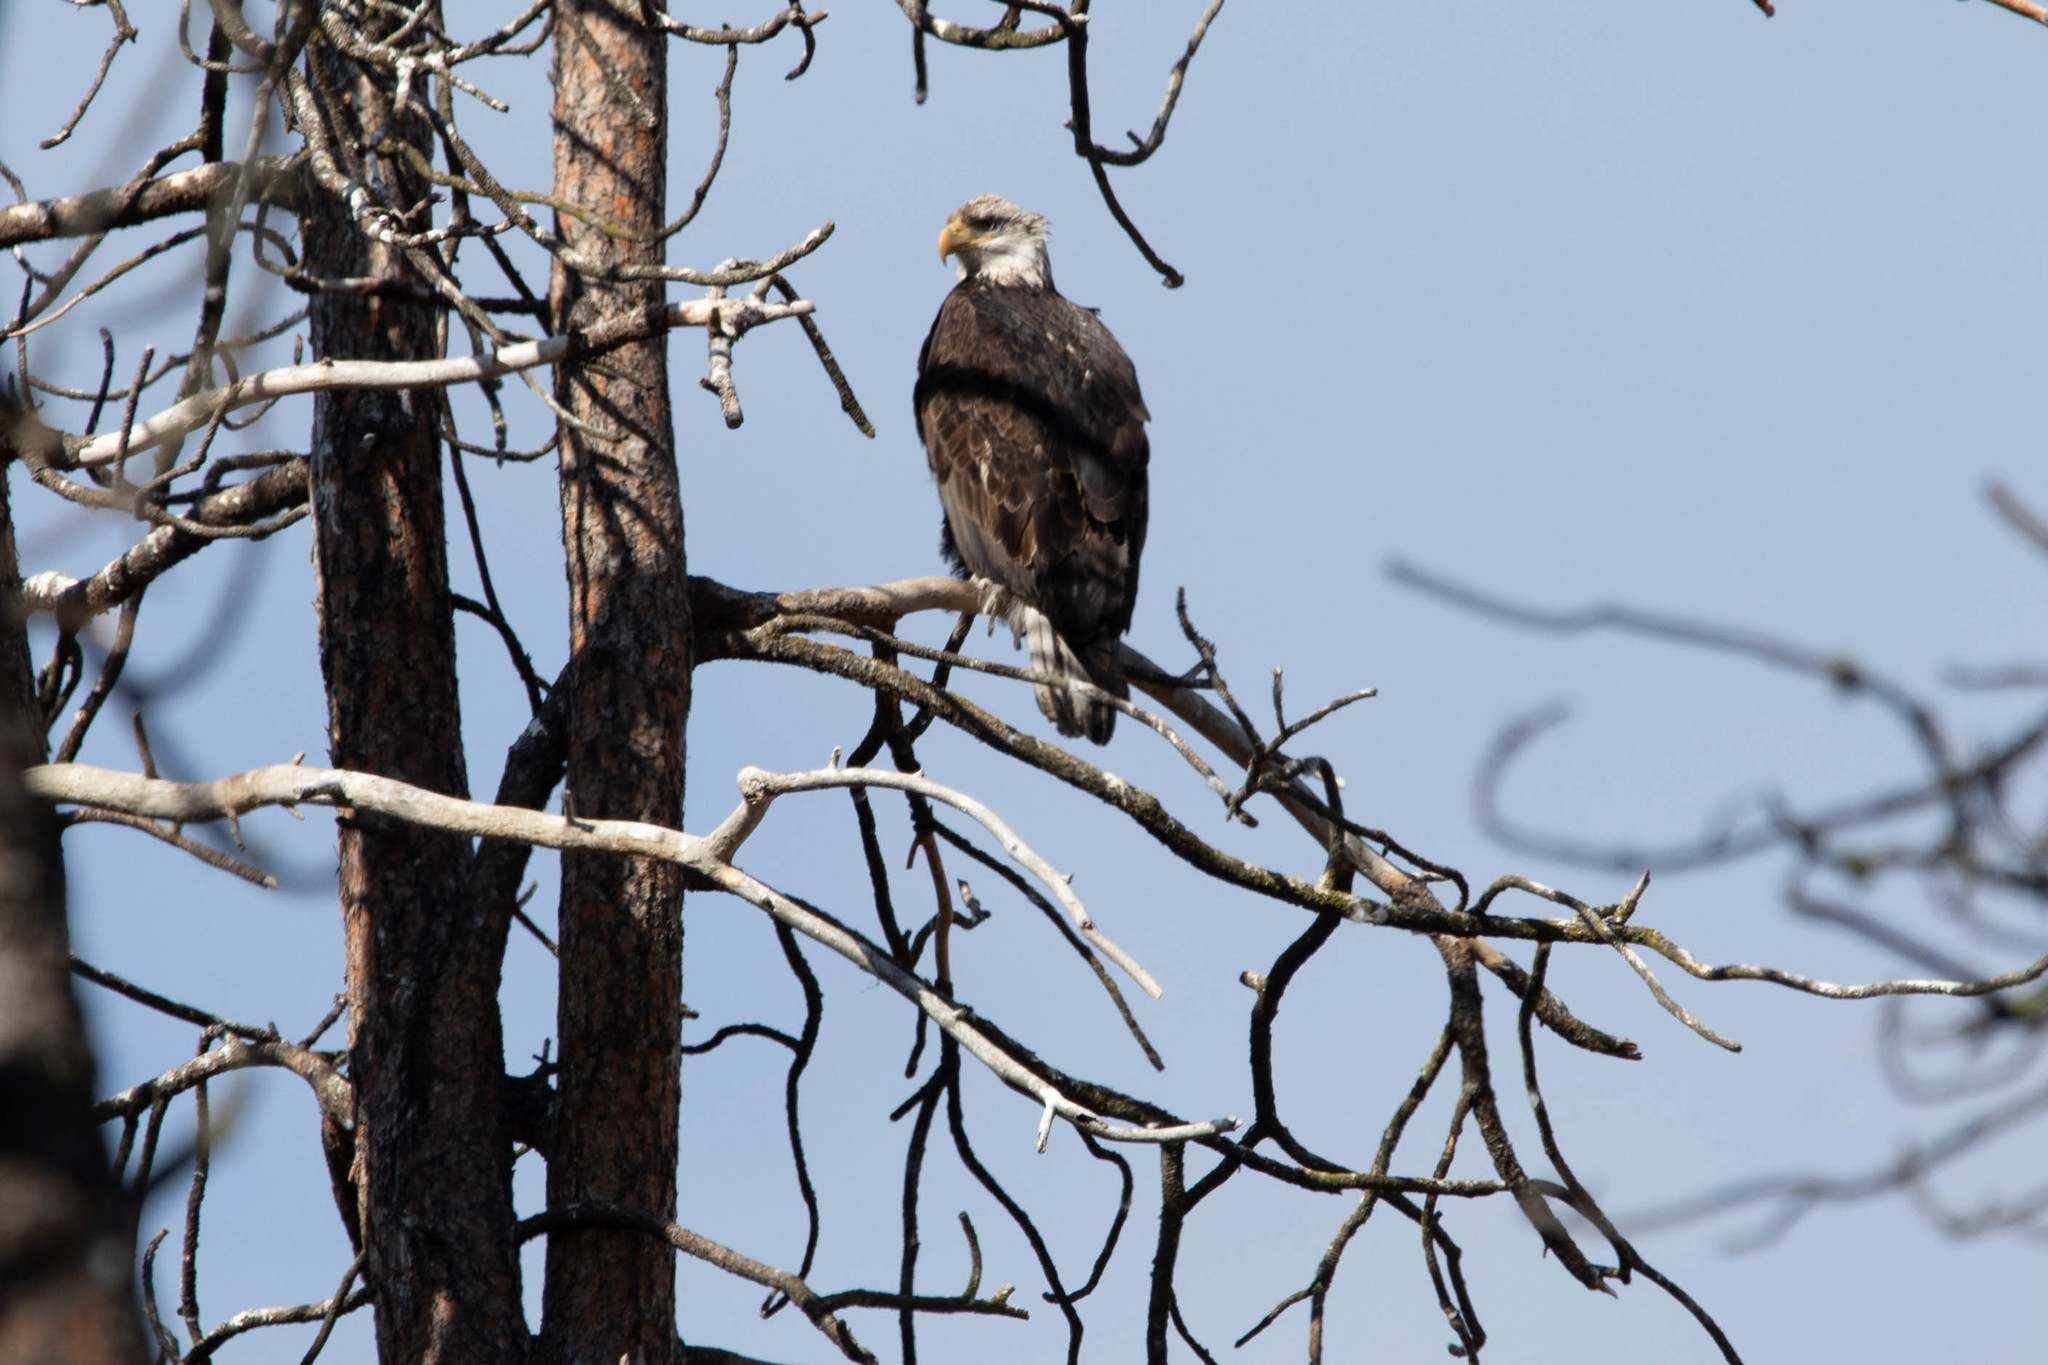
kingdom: Animalia
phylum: Chordata
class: Aves
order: Accipitriformes
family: Accipitridae
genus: Haliaeetus
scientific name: Haliaeetus leucocephalus
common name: Bald eagle
